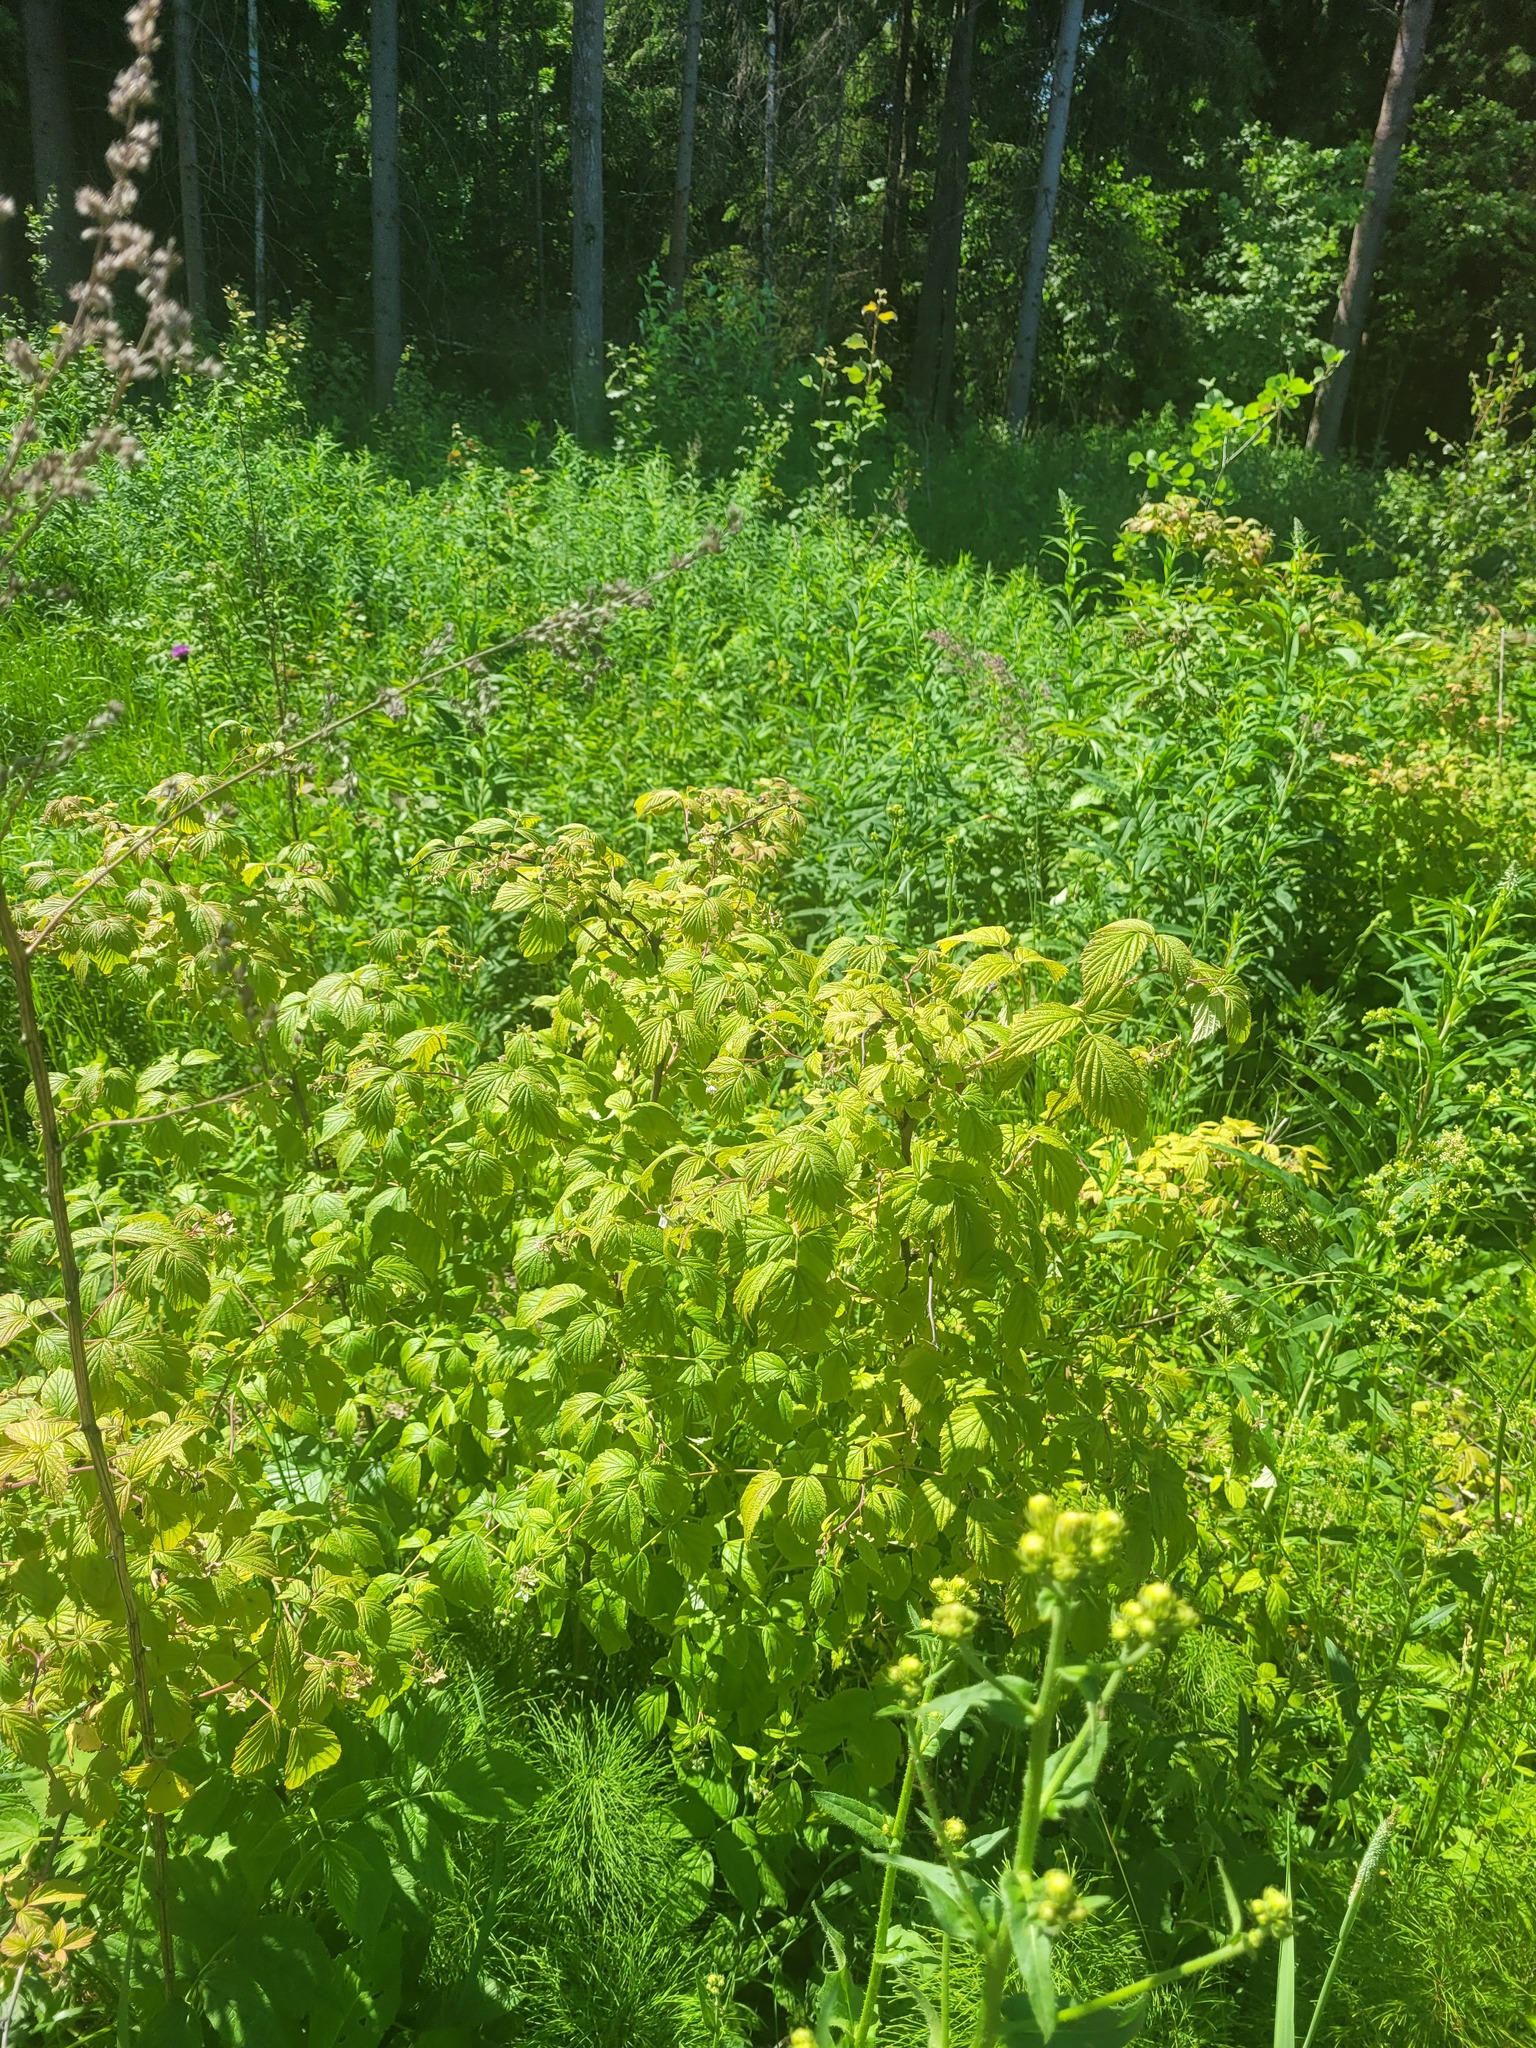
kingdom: Plantae
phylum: Tracheophyta
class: Magnoliopsida
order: Rosales
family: Rosaceae
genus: Rubus
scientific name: Rubus idaeus
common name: Raspberry
